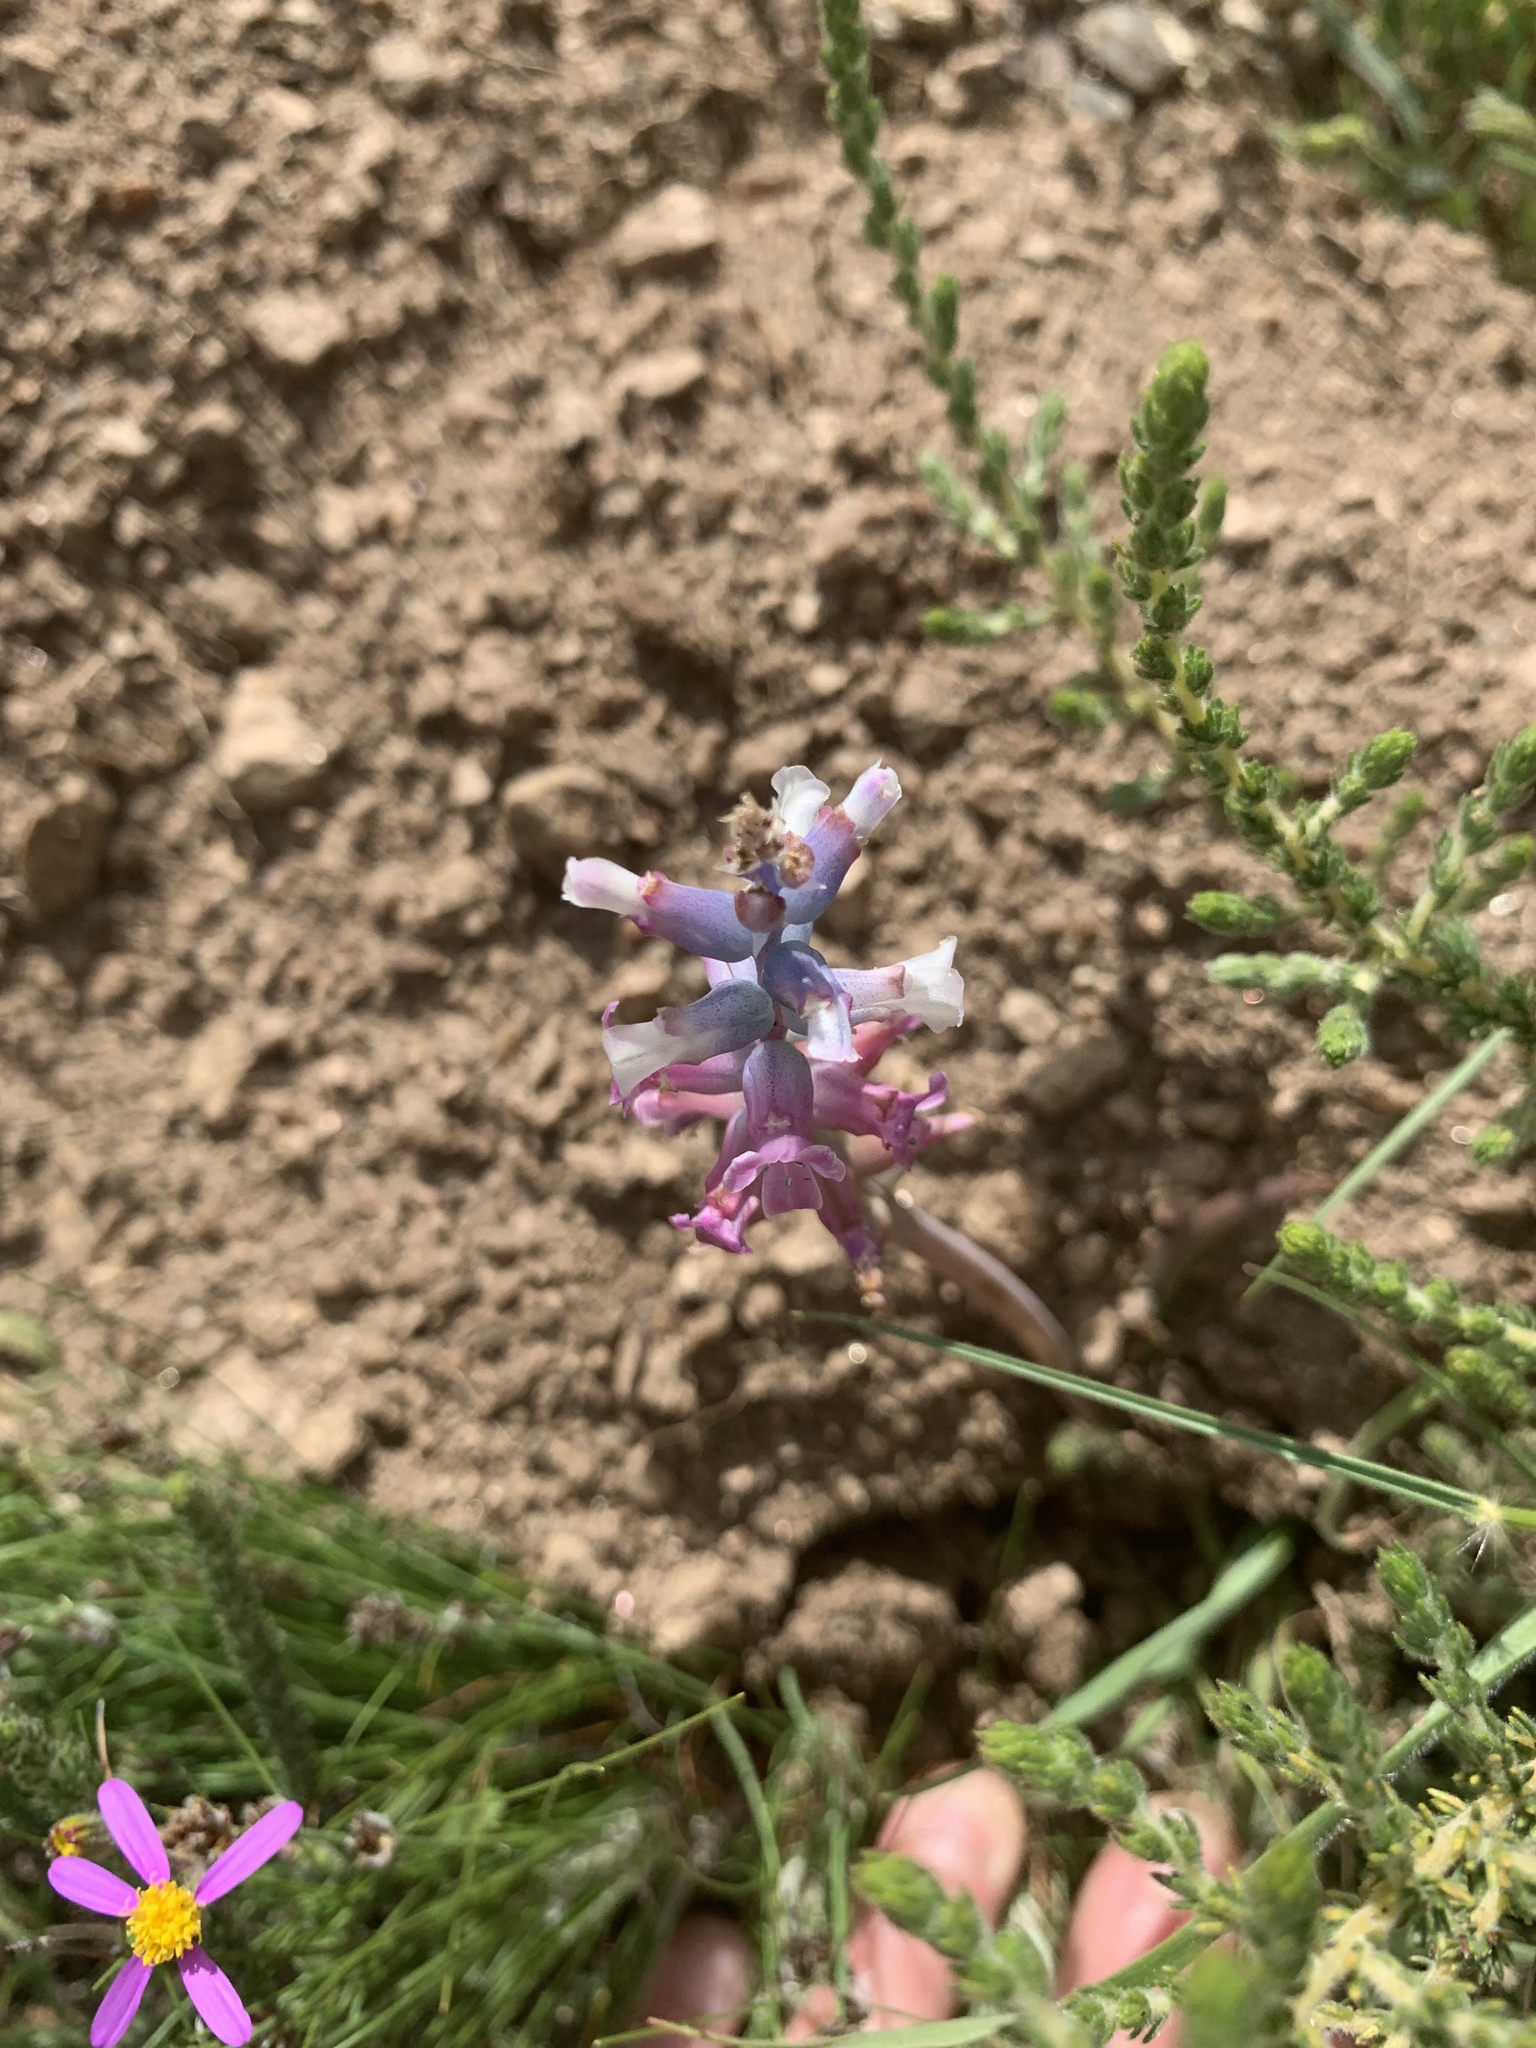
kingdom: Plantae
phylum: Tracheophyta
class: Liliopsida
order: Asparagales
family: Asparagaceae
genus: Lachenalia
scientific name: Lachenalia fistulosa
